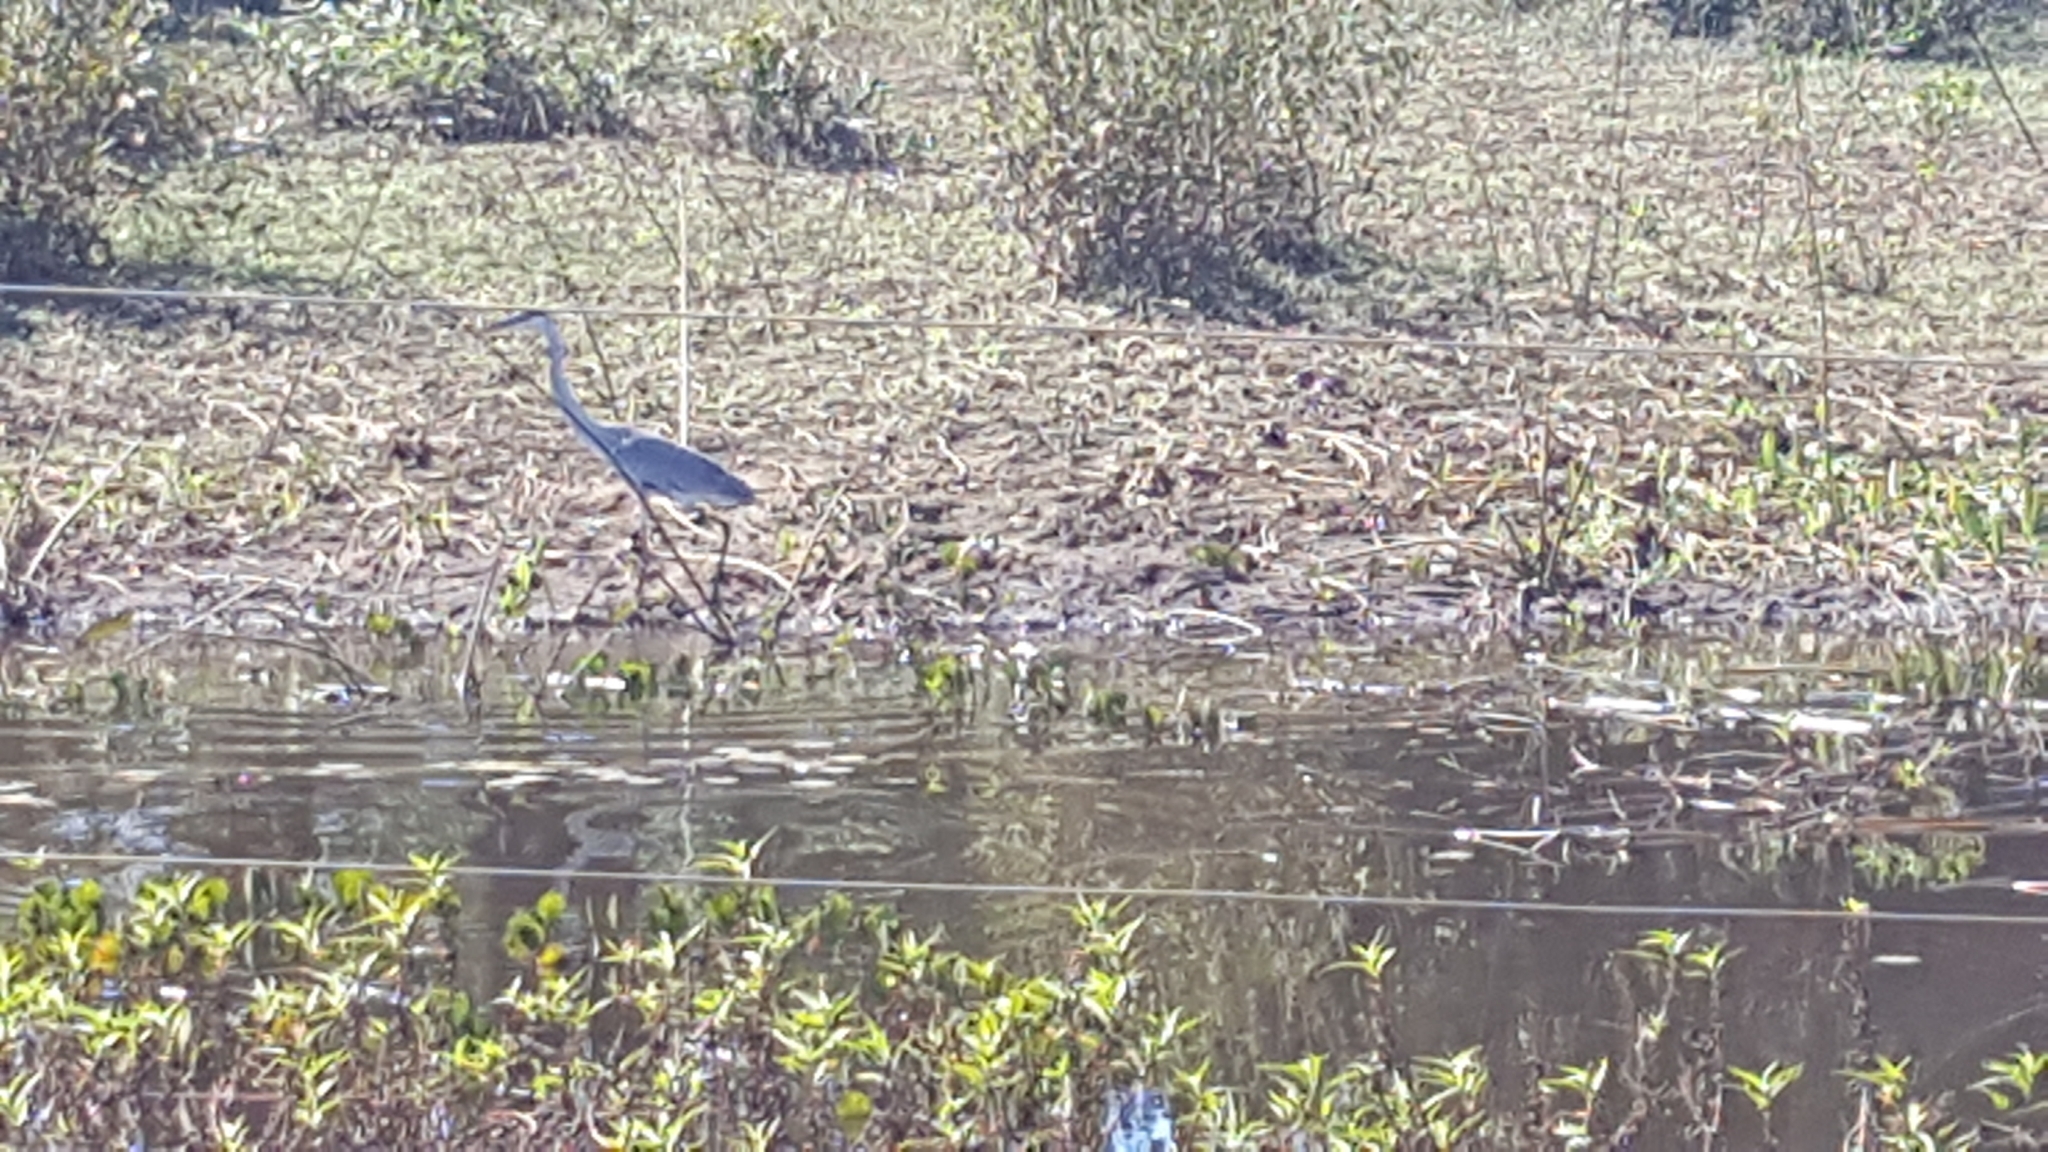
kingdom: Animalia
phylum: Chordata
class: Aves
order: Pelecaniformes
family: Ardeidae
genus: Ardea
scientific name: Ardea cocoi
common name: Cocoi heron
